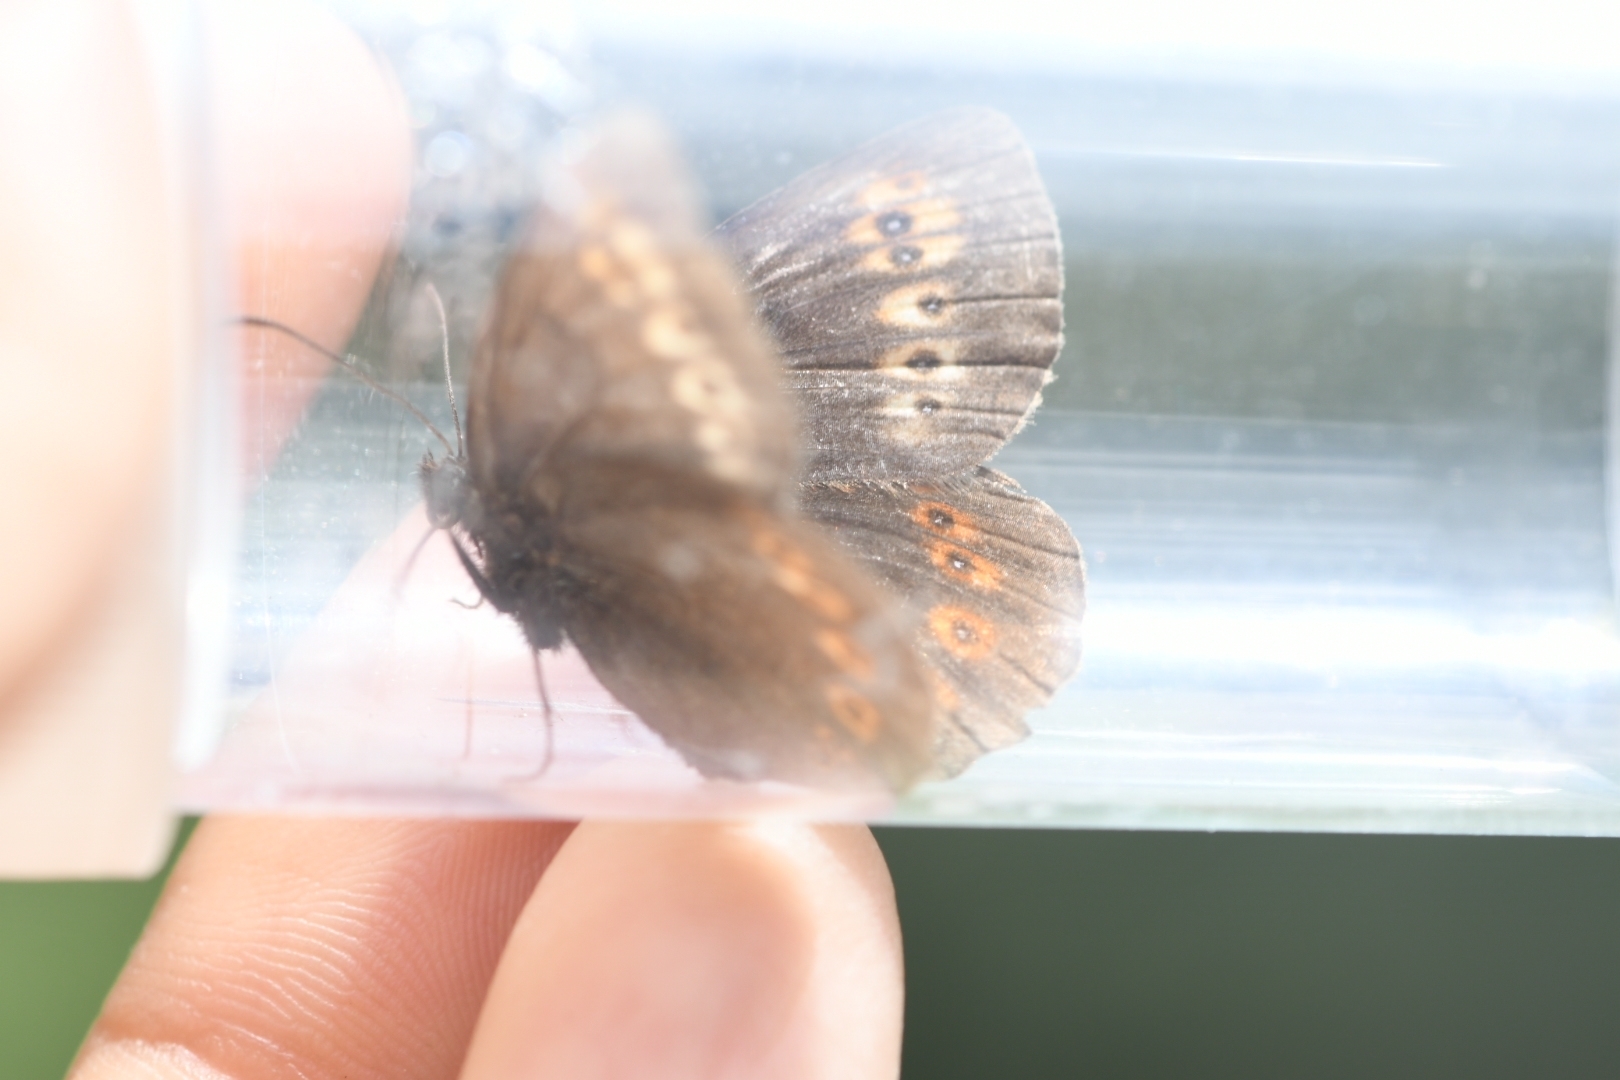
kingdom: Animalia
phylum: Arthropoda
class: Insecta
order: Lepidoptera
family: Nymphalidae
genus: Erebia
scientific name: Erebia alberganus
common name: Almond-eyed ringlet
